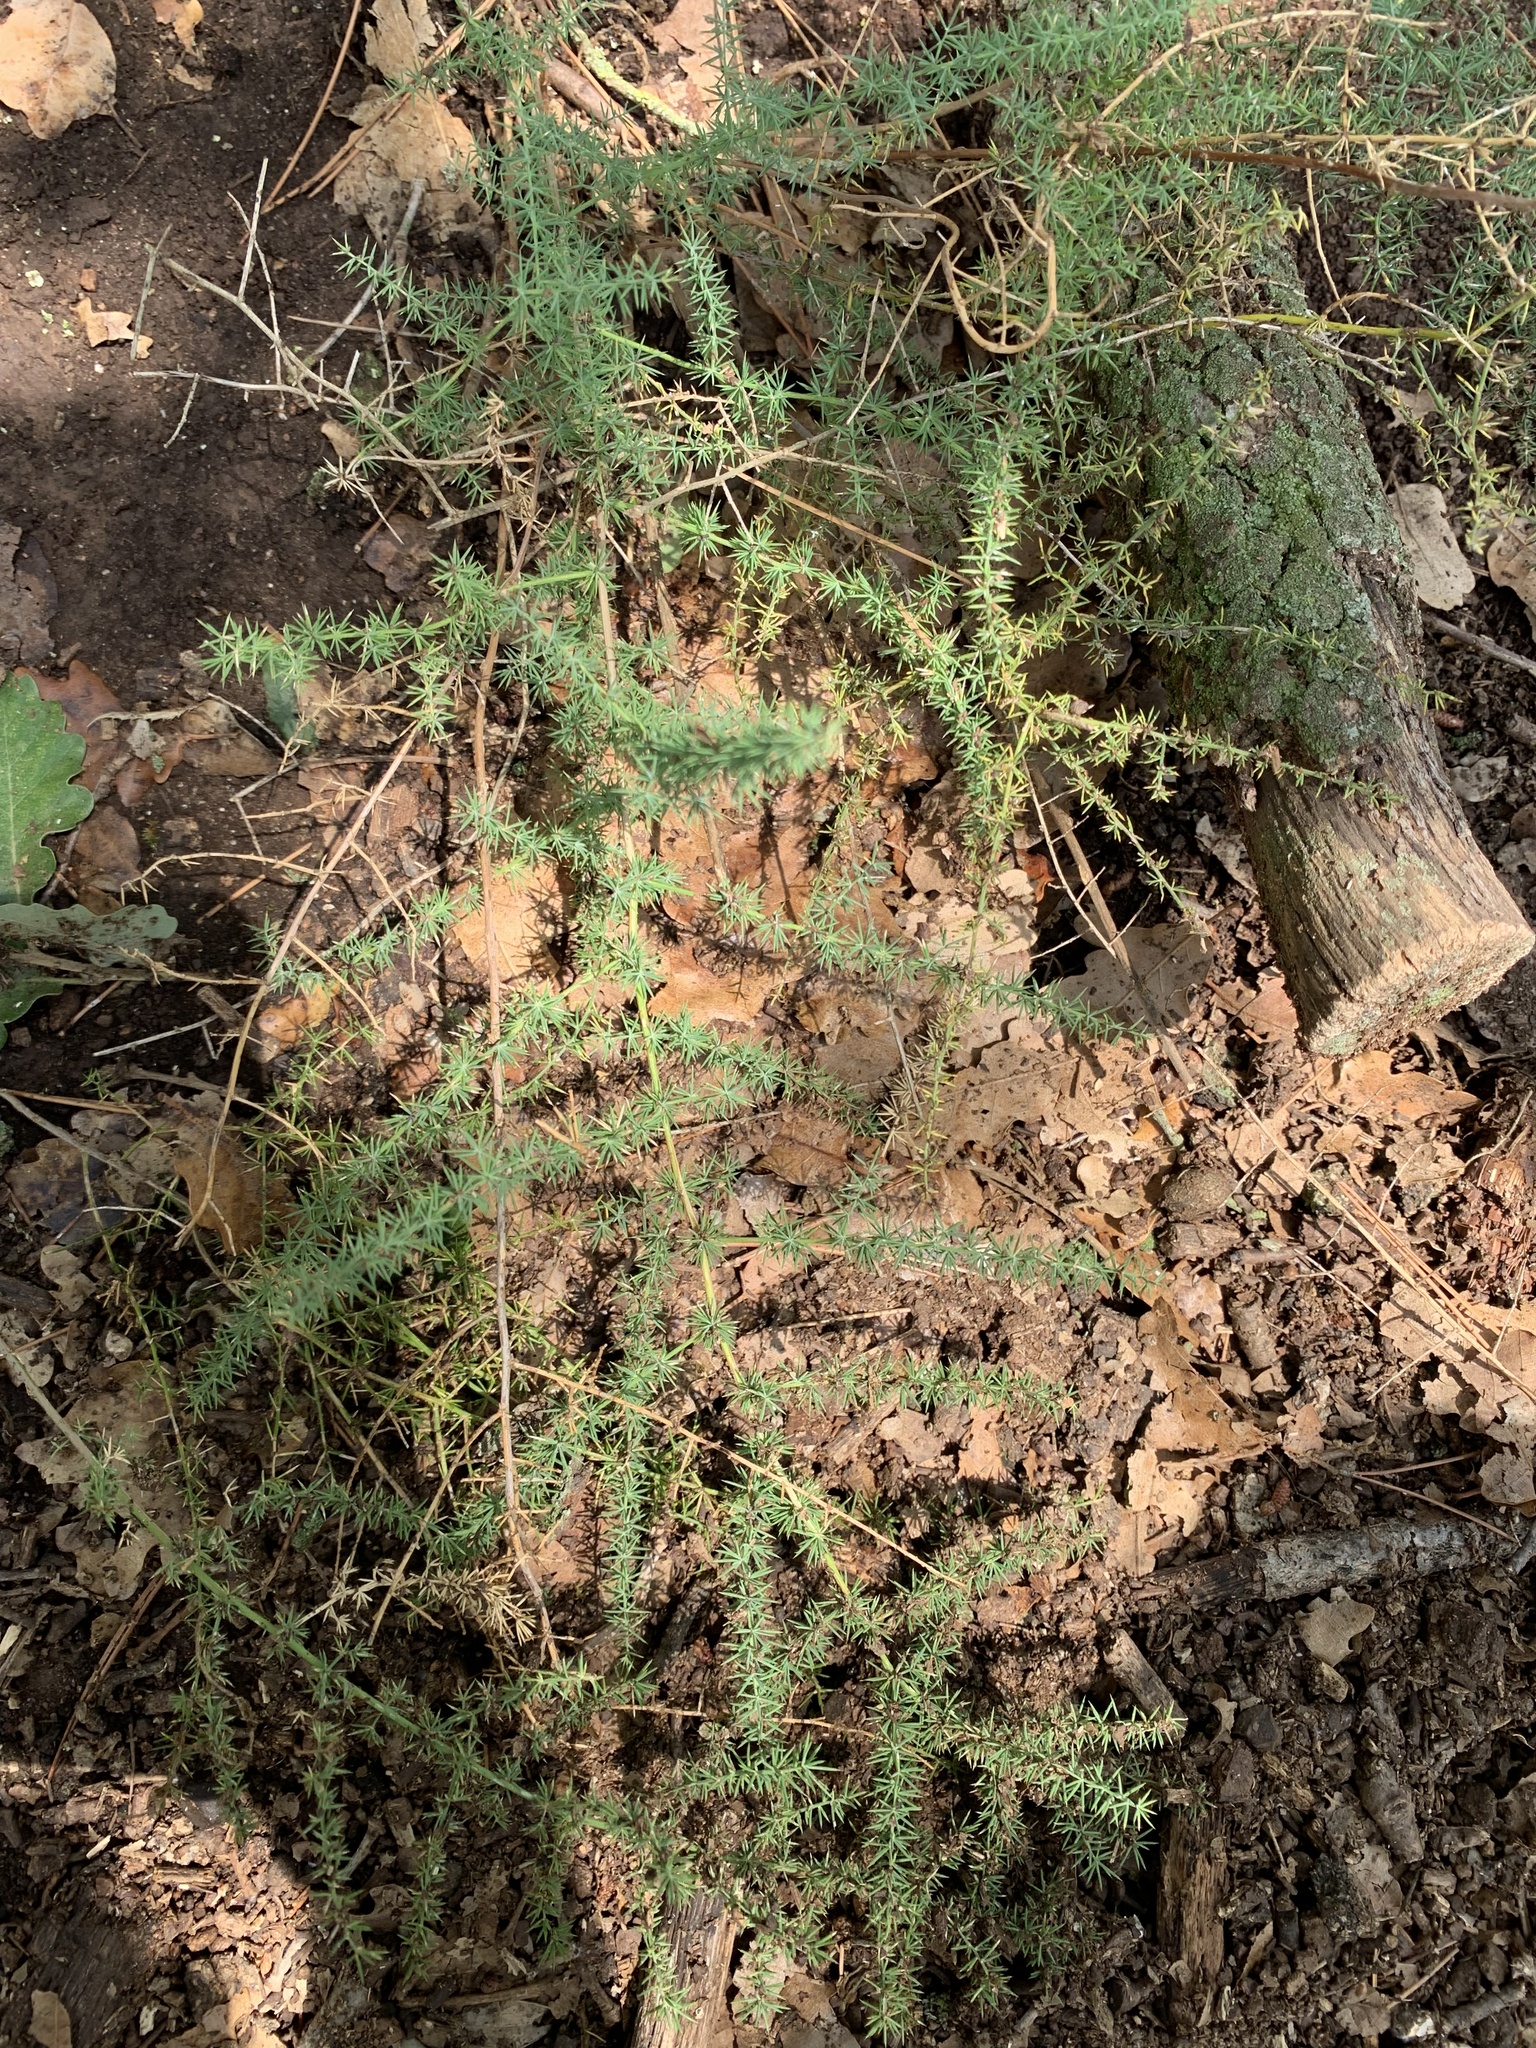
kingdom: Plantae
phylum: Tracheophyta
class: Liliopsida
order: Asparagales
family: Asparagaceae
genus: Asparagus
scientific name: Asparagus acutifolius
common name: Wild asparagus
